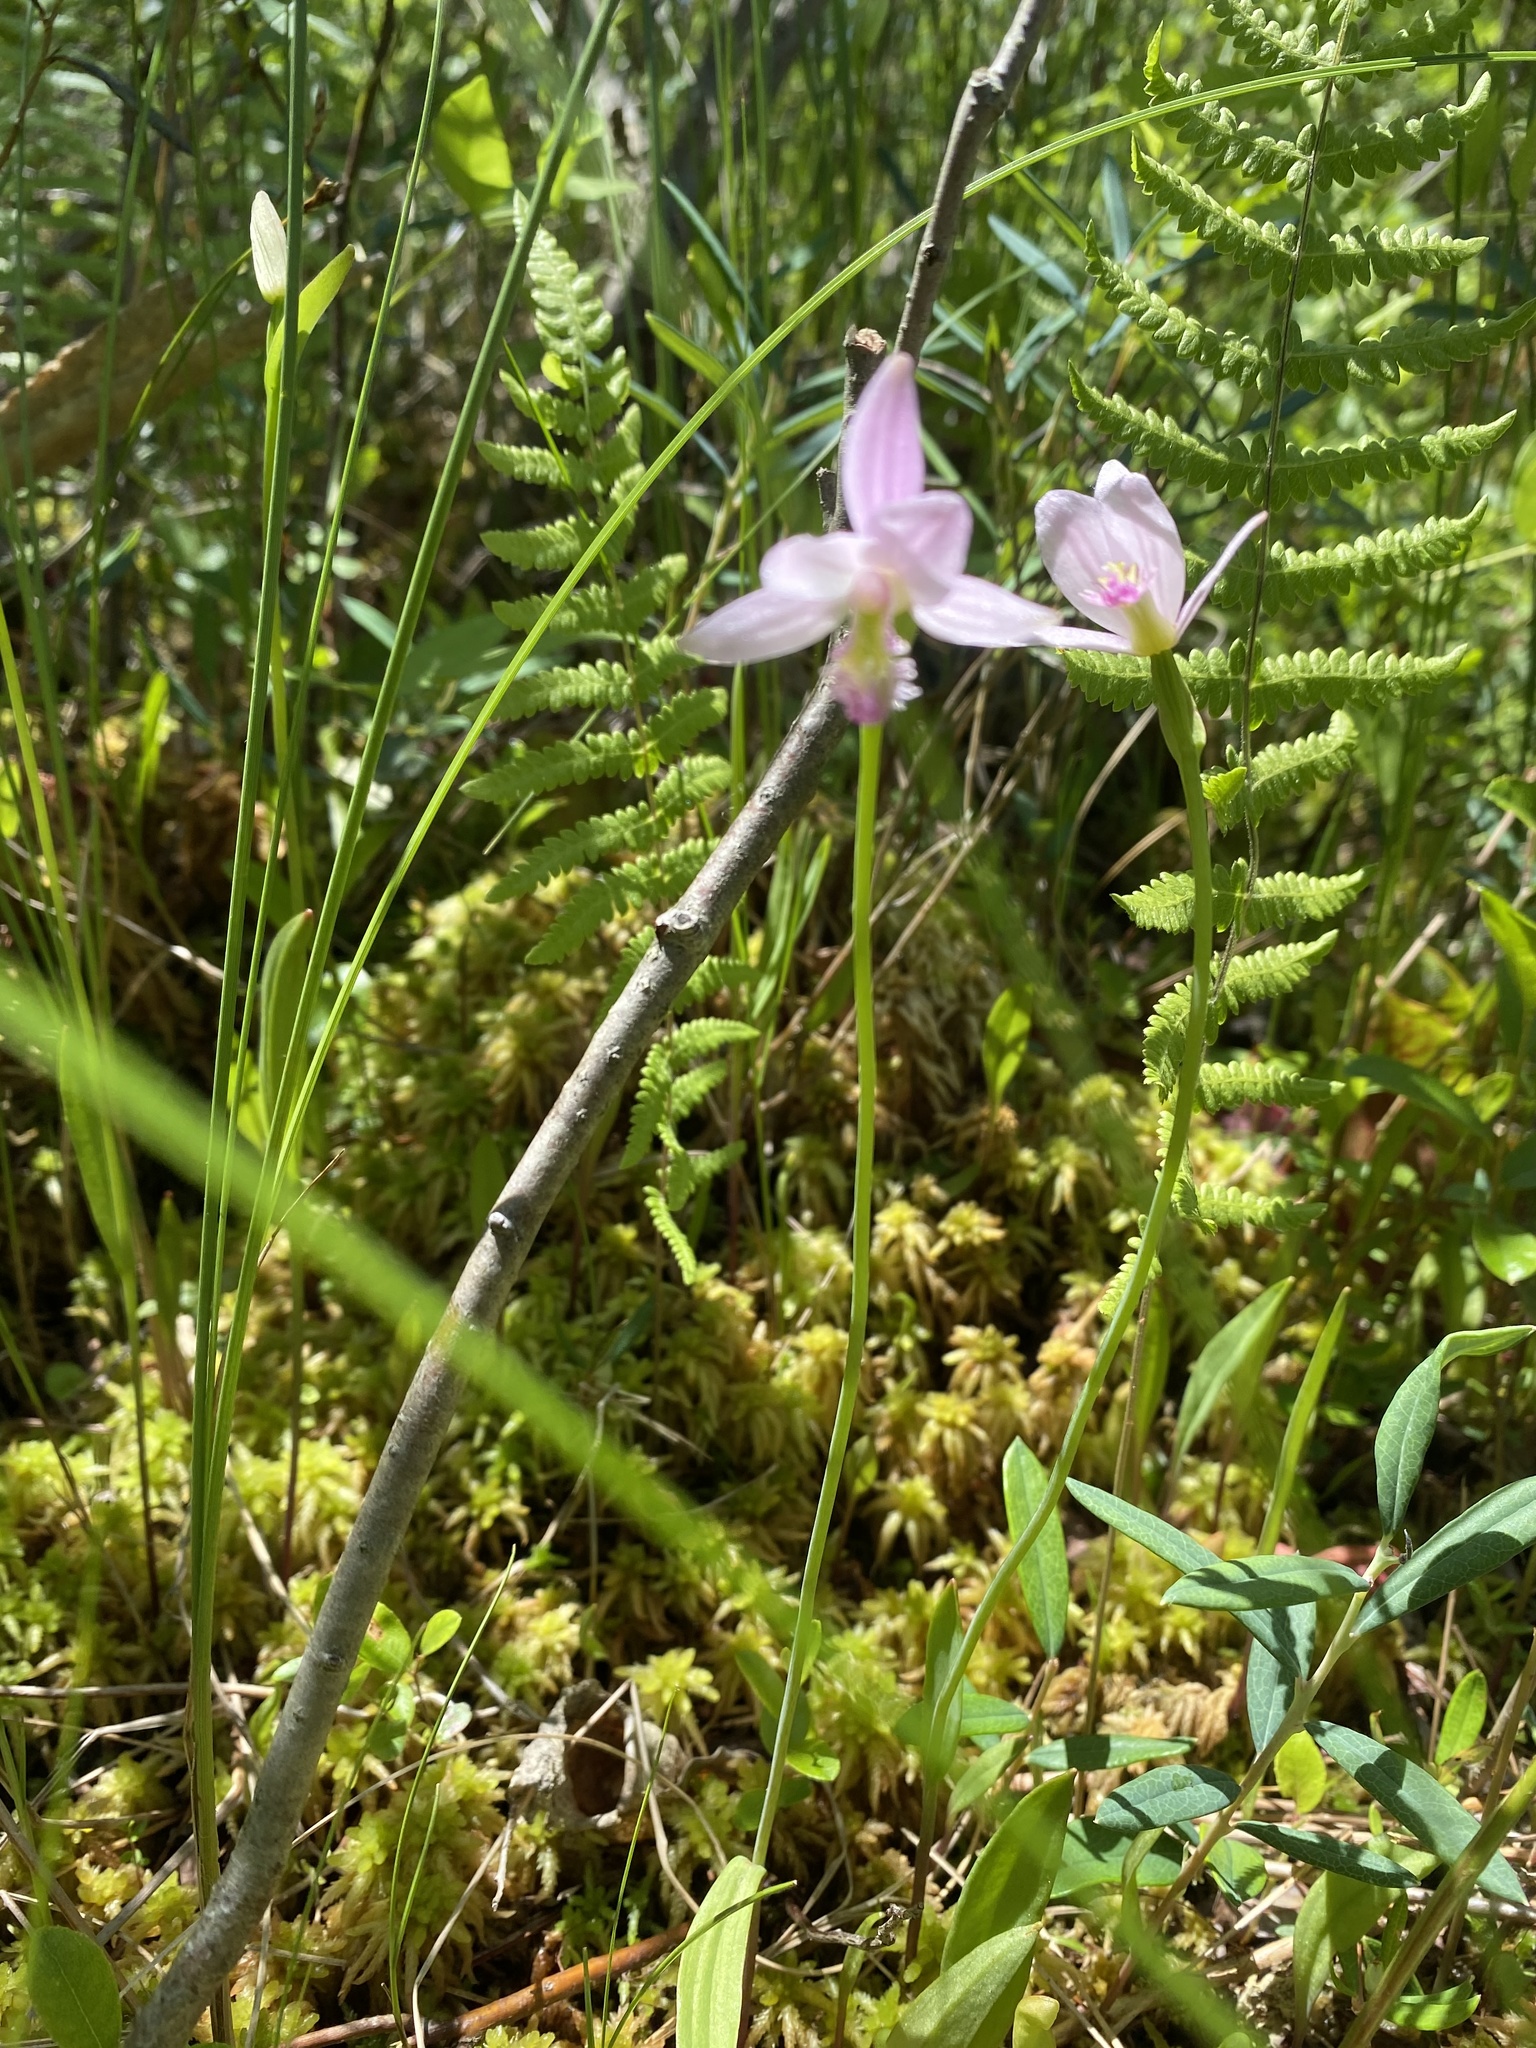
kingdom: Plantae
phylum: Tracheophyta
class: Liliopsida
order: Asparagales
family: Orchidaceae
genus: Pogonia
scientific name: Pogonia ophioglossoides
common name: Rose pogonia
